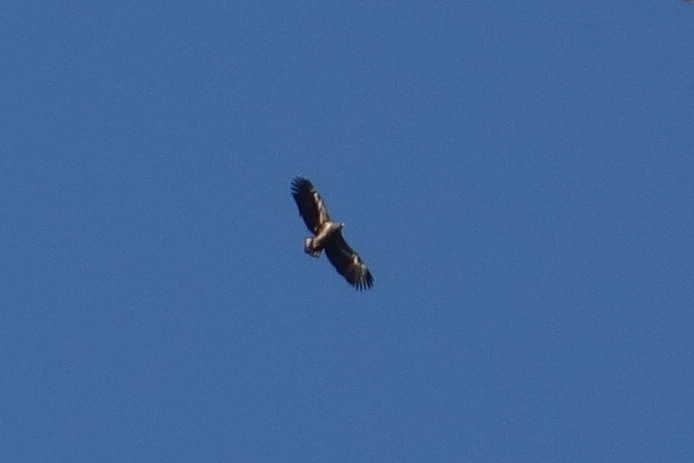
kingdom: Animalia
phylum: Chordata
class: Aves
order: Accipitriformes
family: Accipitridae
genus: Haliaeetus
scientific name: Haliaeetus albicilla
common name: White-tailed eagle
